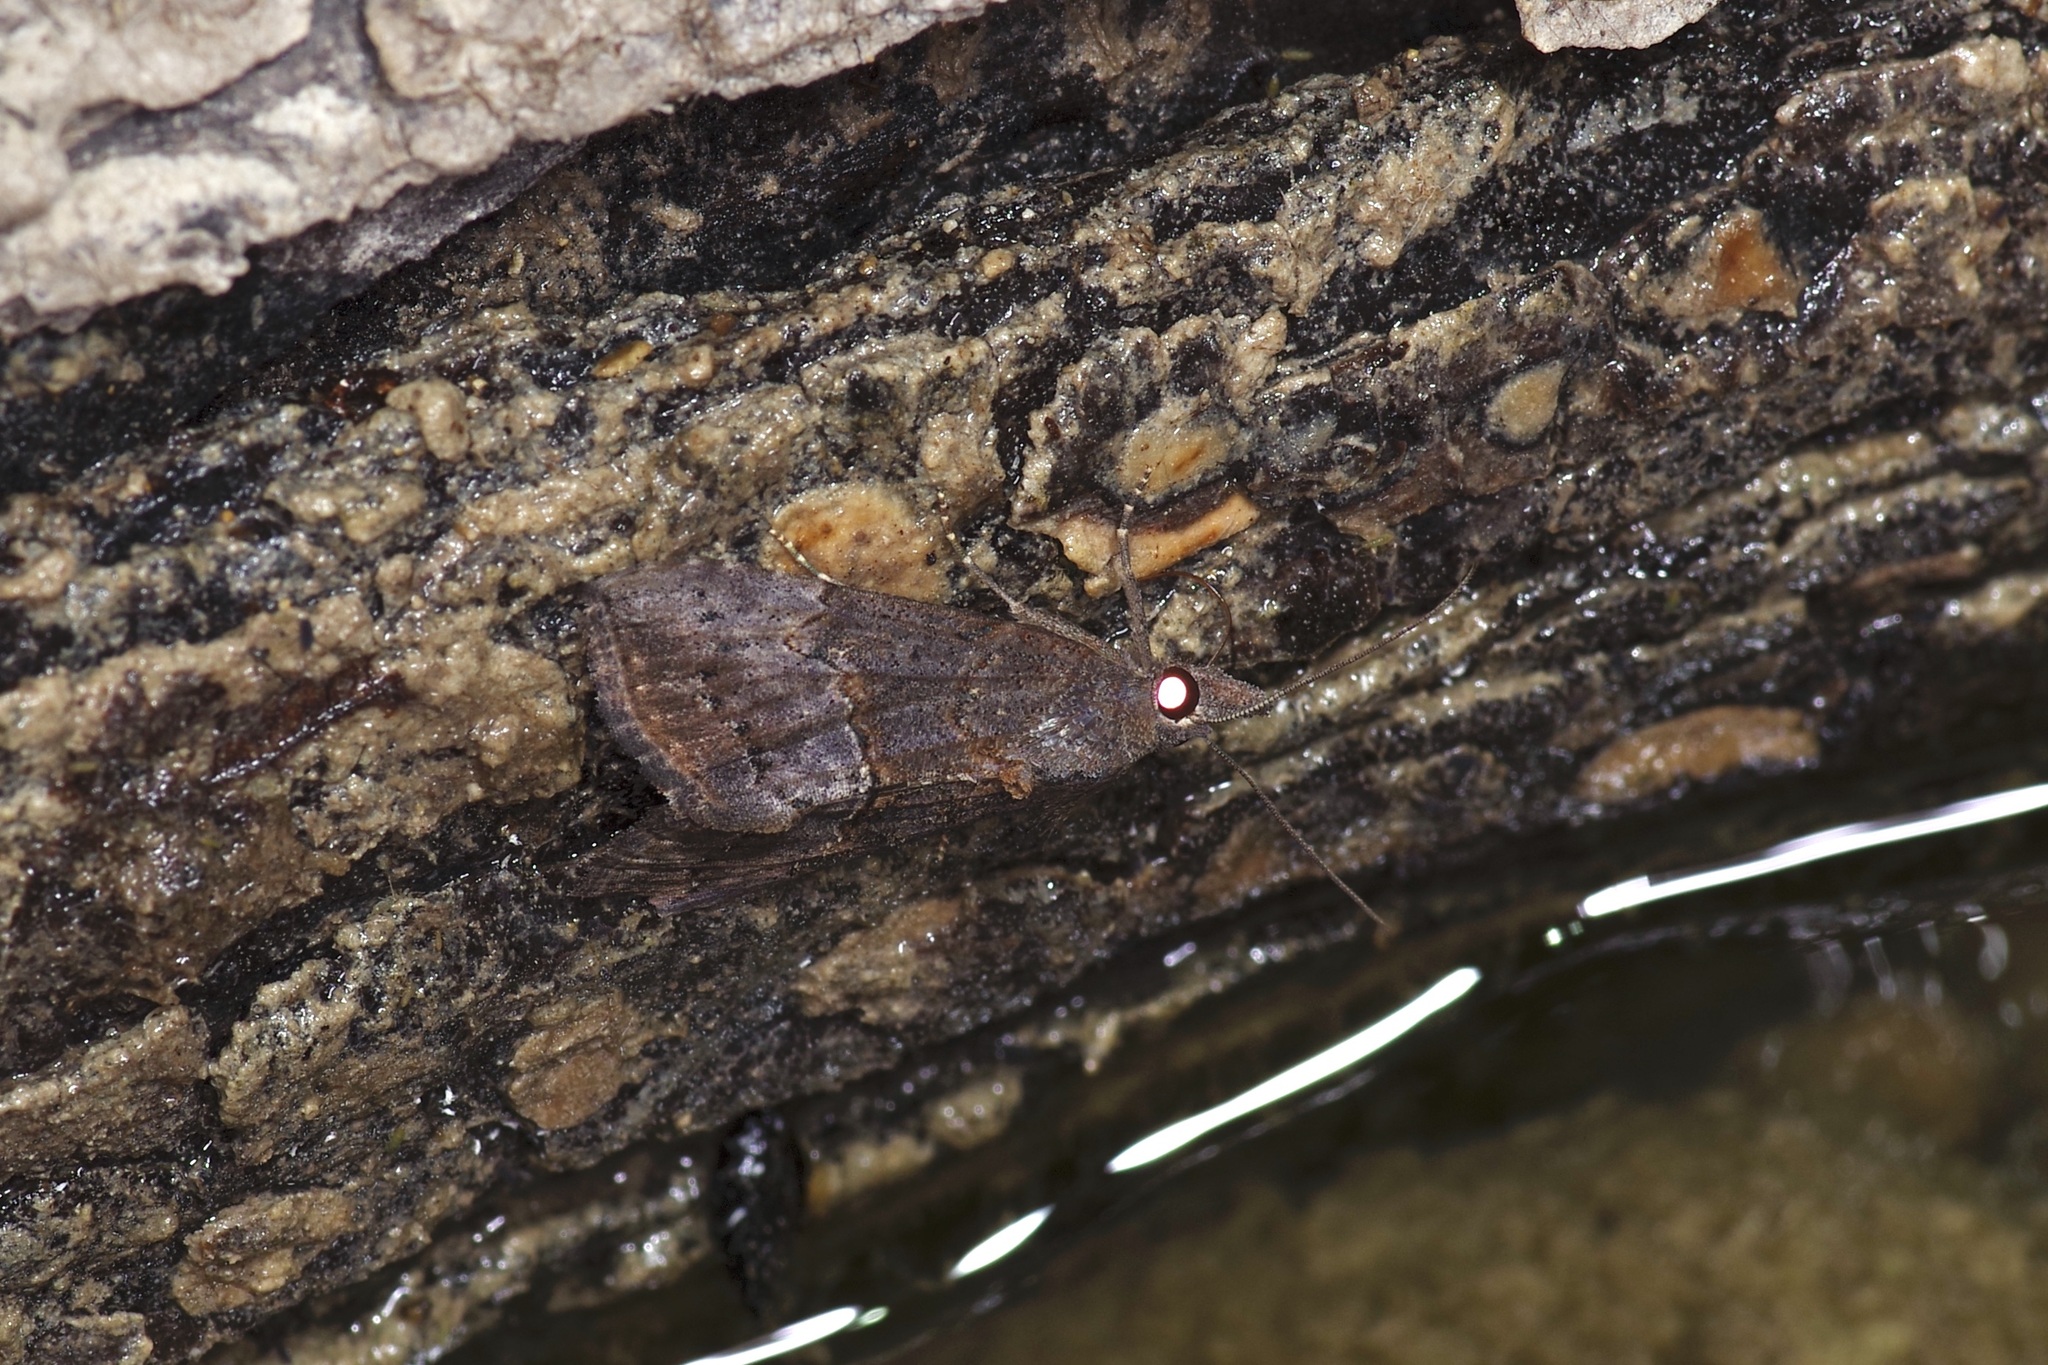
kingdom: Animalia
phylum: Arthropoda
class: Insecta
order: Lepidoptera
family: Erebidae
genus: Hypena
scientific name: Hypena scabra
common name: Green cloverworm
